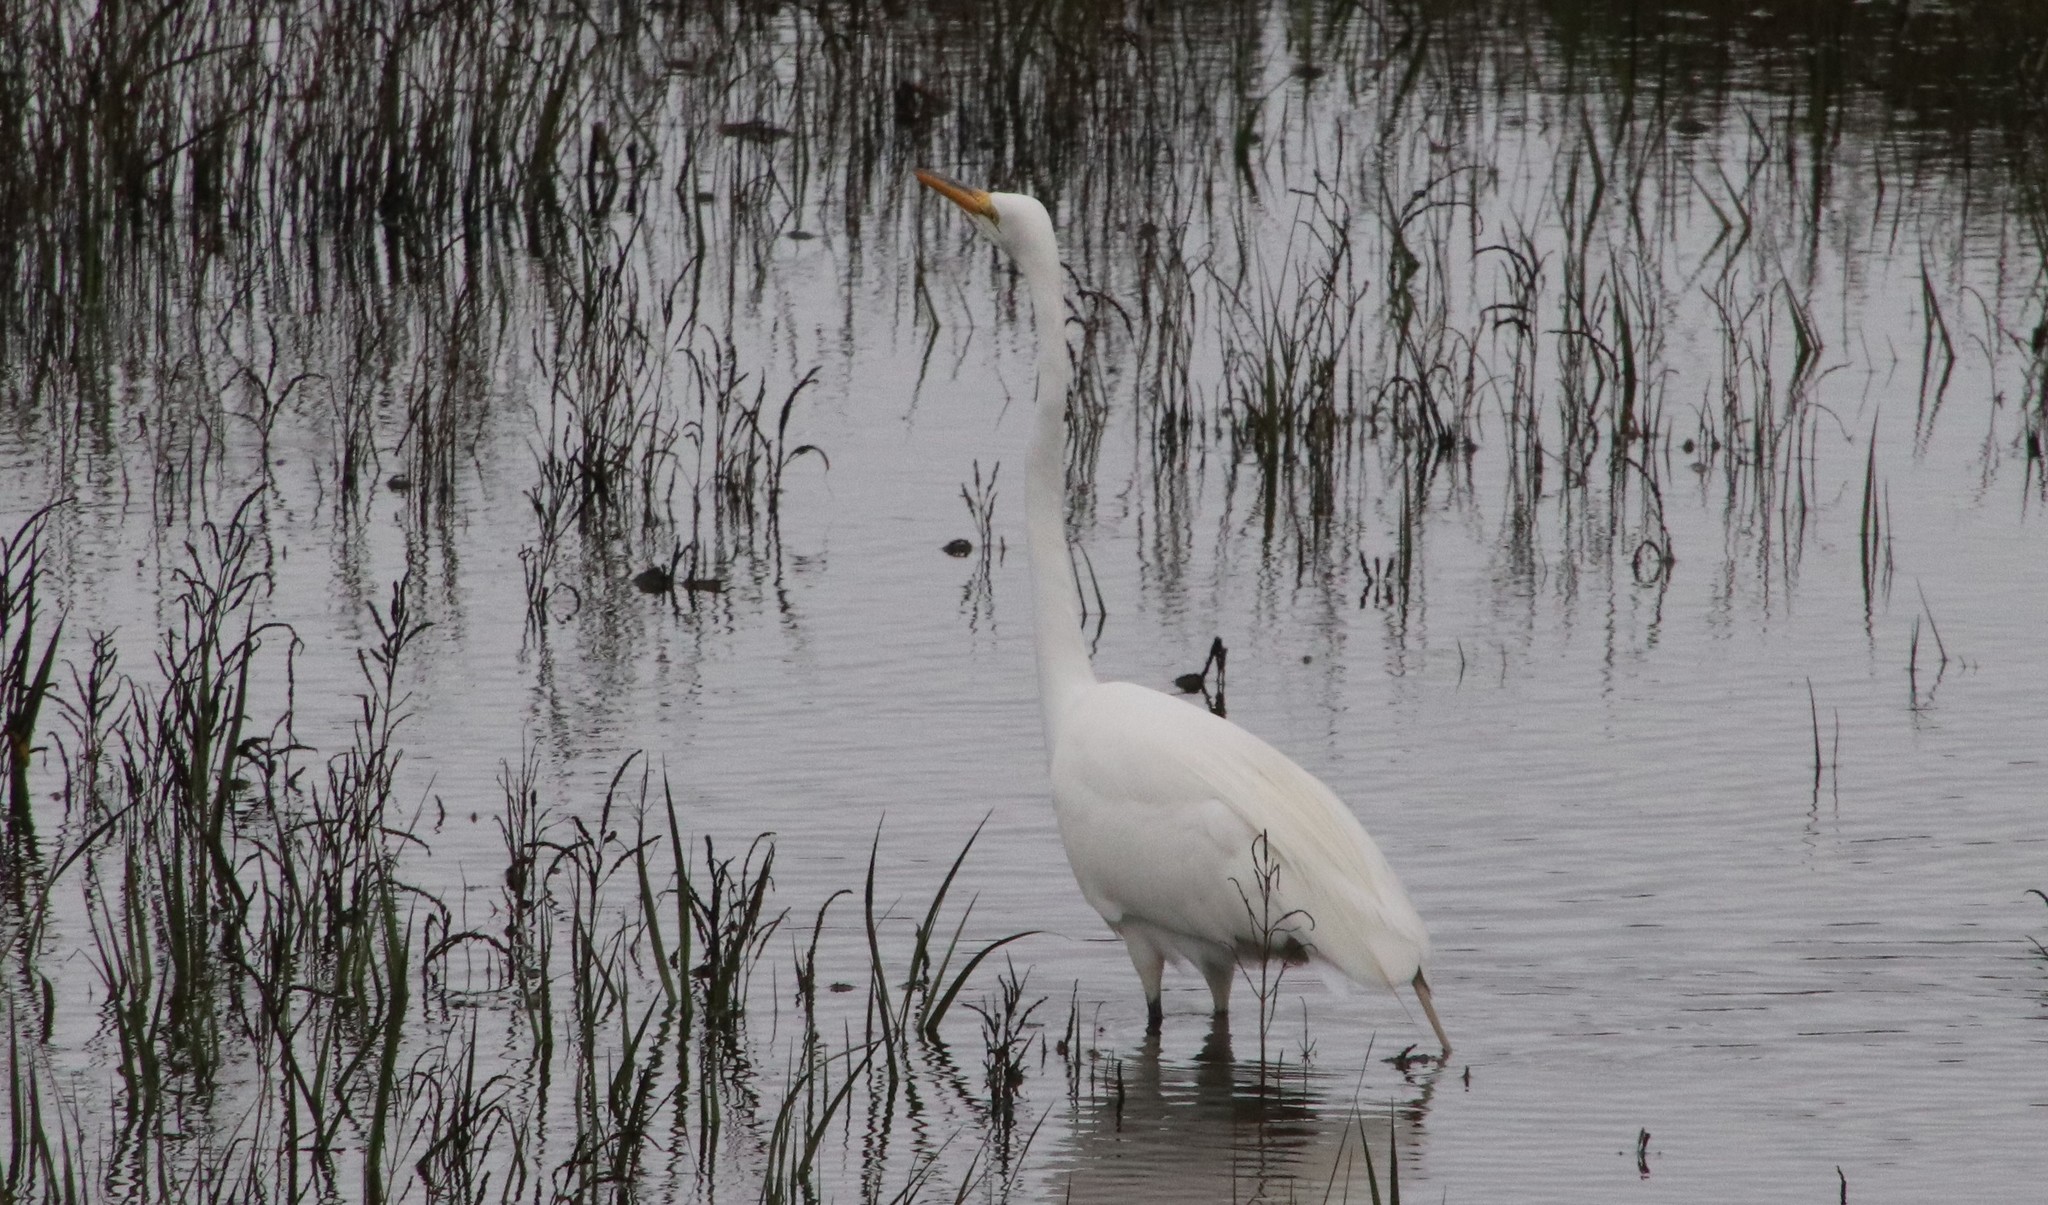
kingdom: Animalia
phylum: Chordata
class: Aves
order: Pelecaniformes
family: Ardeidae
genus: Ardea
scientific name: Ardea alba
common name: Great egret
